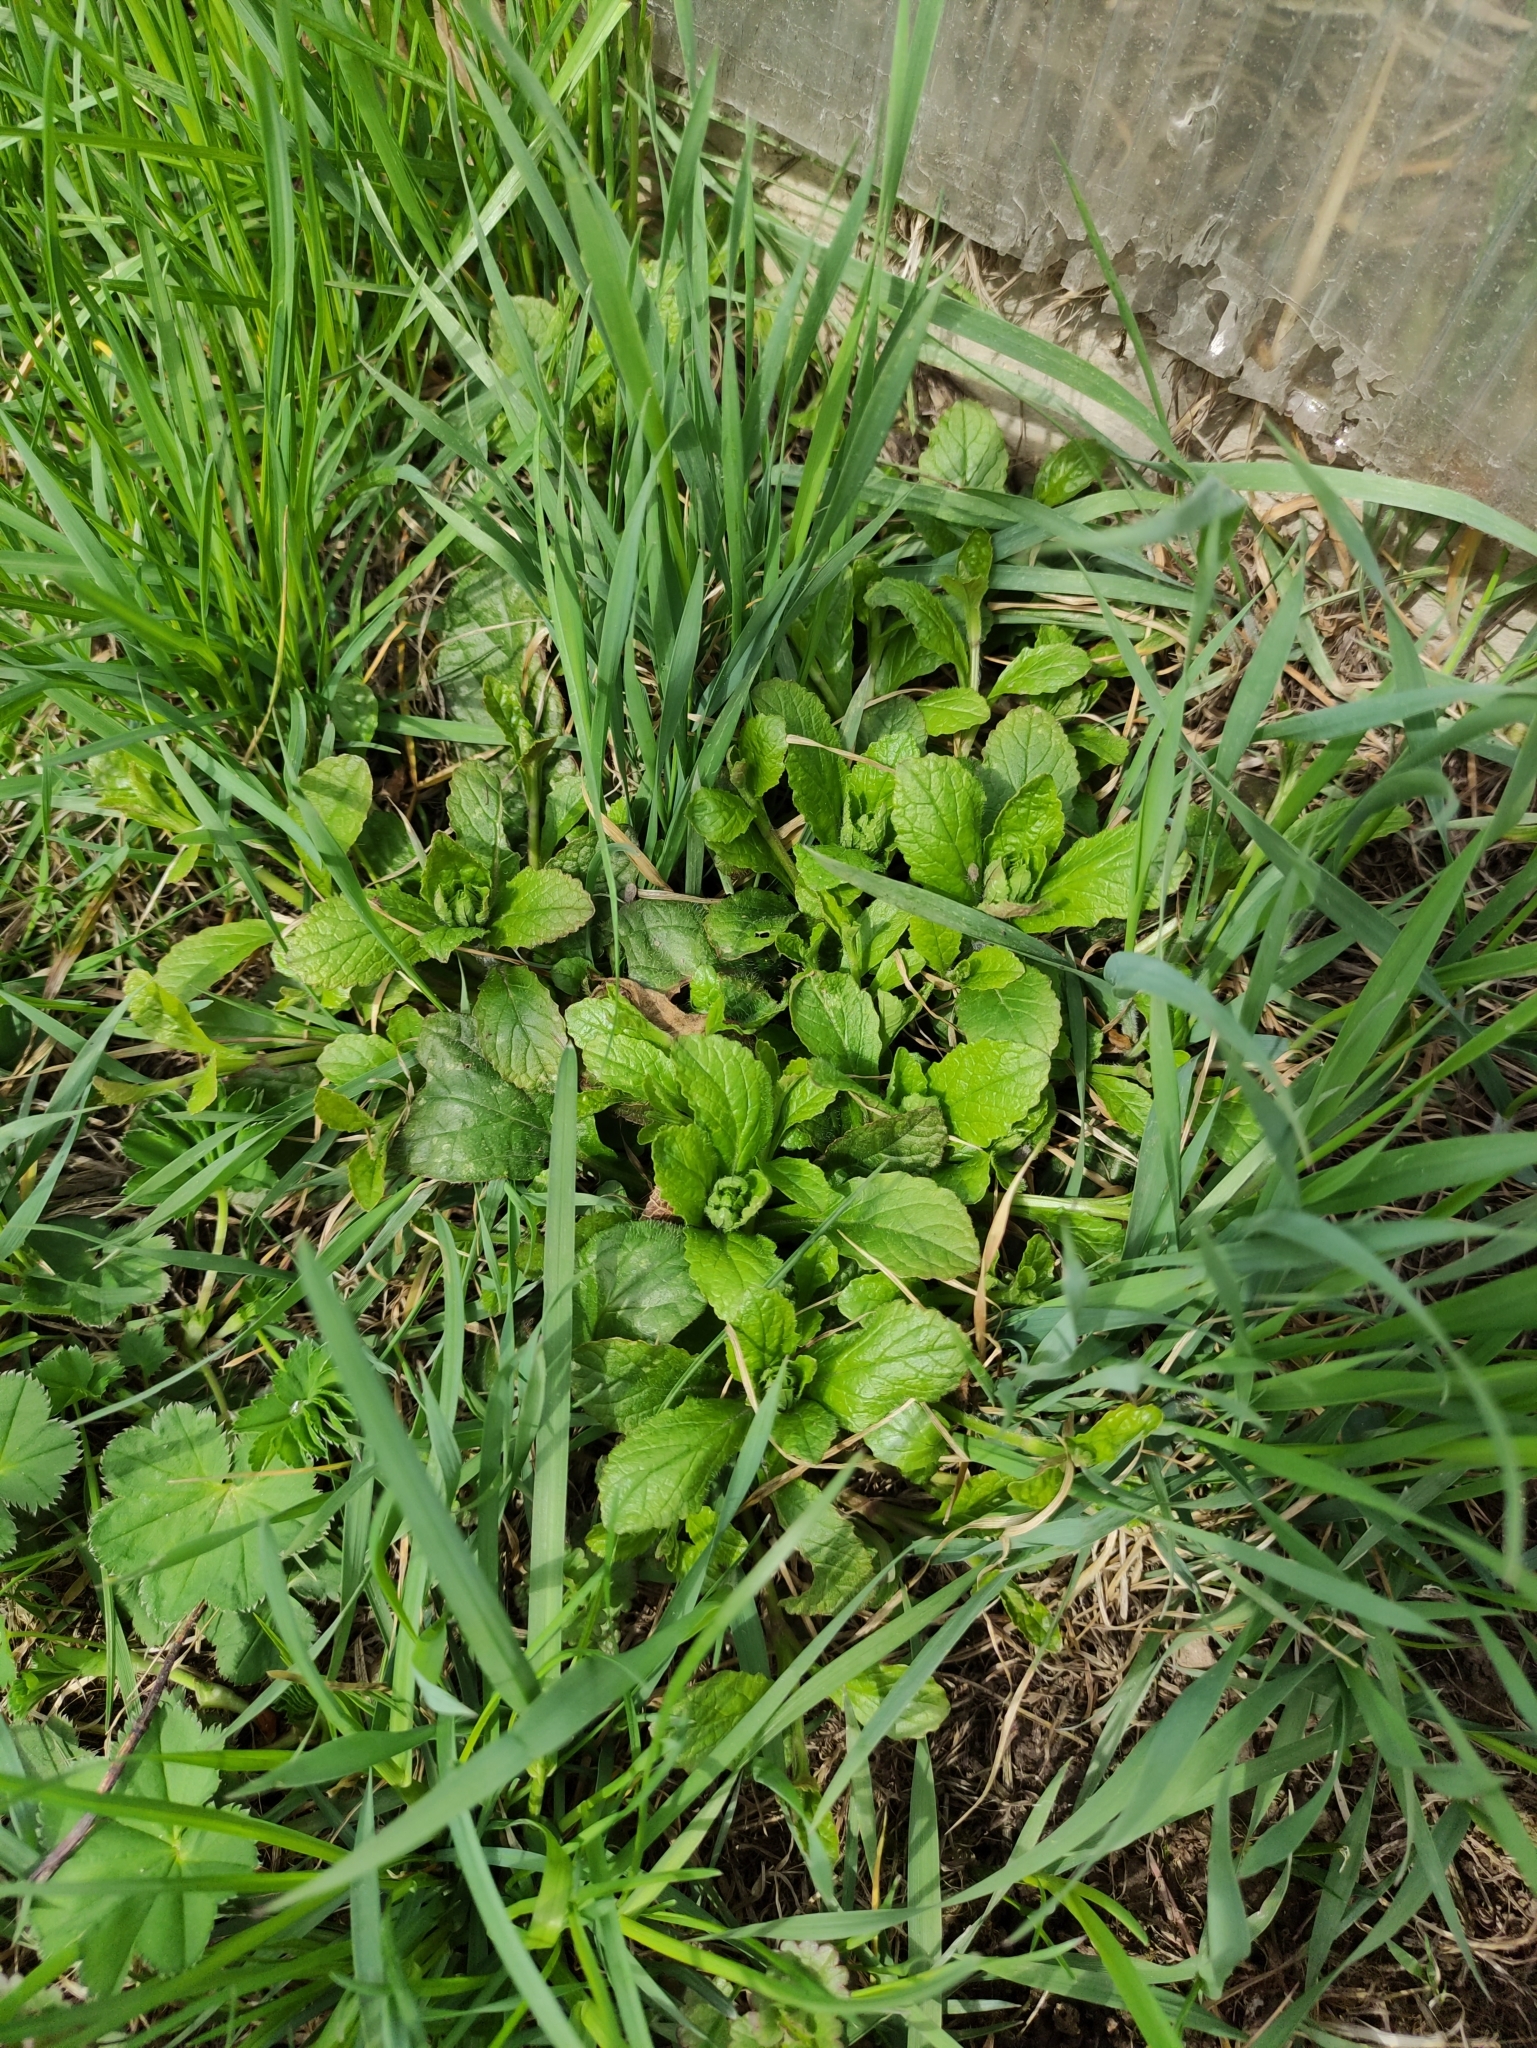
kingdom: Plantae
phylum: Tracheophyta
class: Magnoliopsida
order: Lamiales
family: Lamiaceae
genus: Ajuga
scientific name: Ajuga reptans
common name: Bugle
